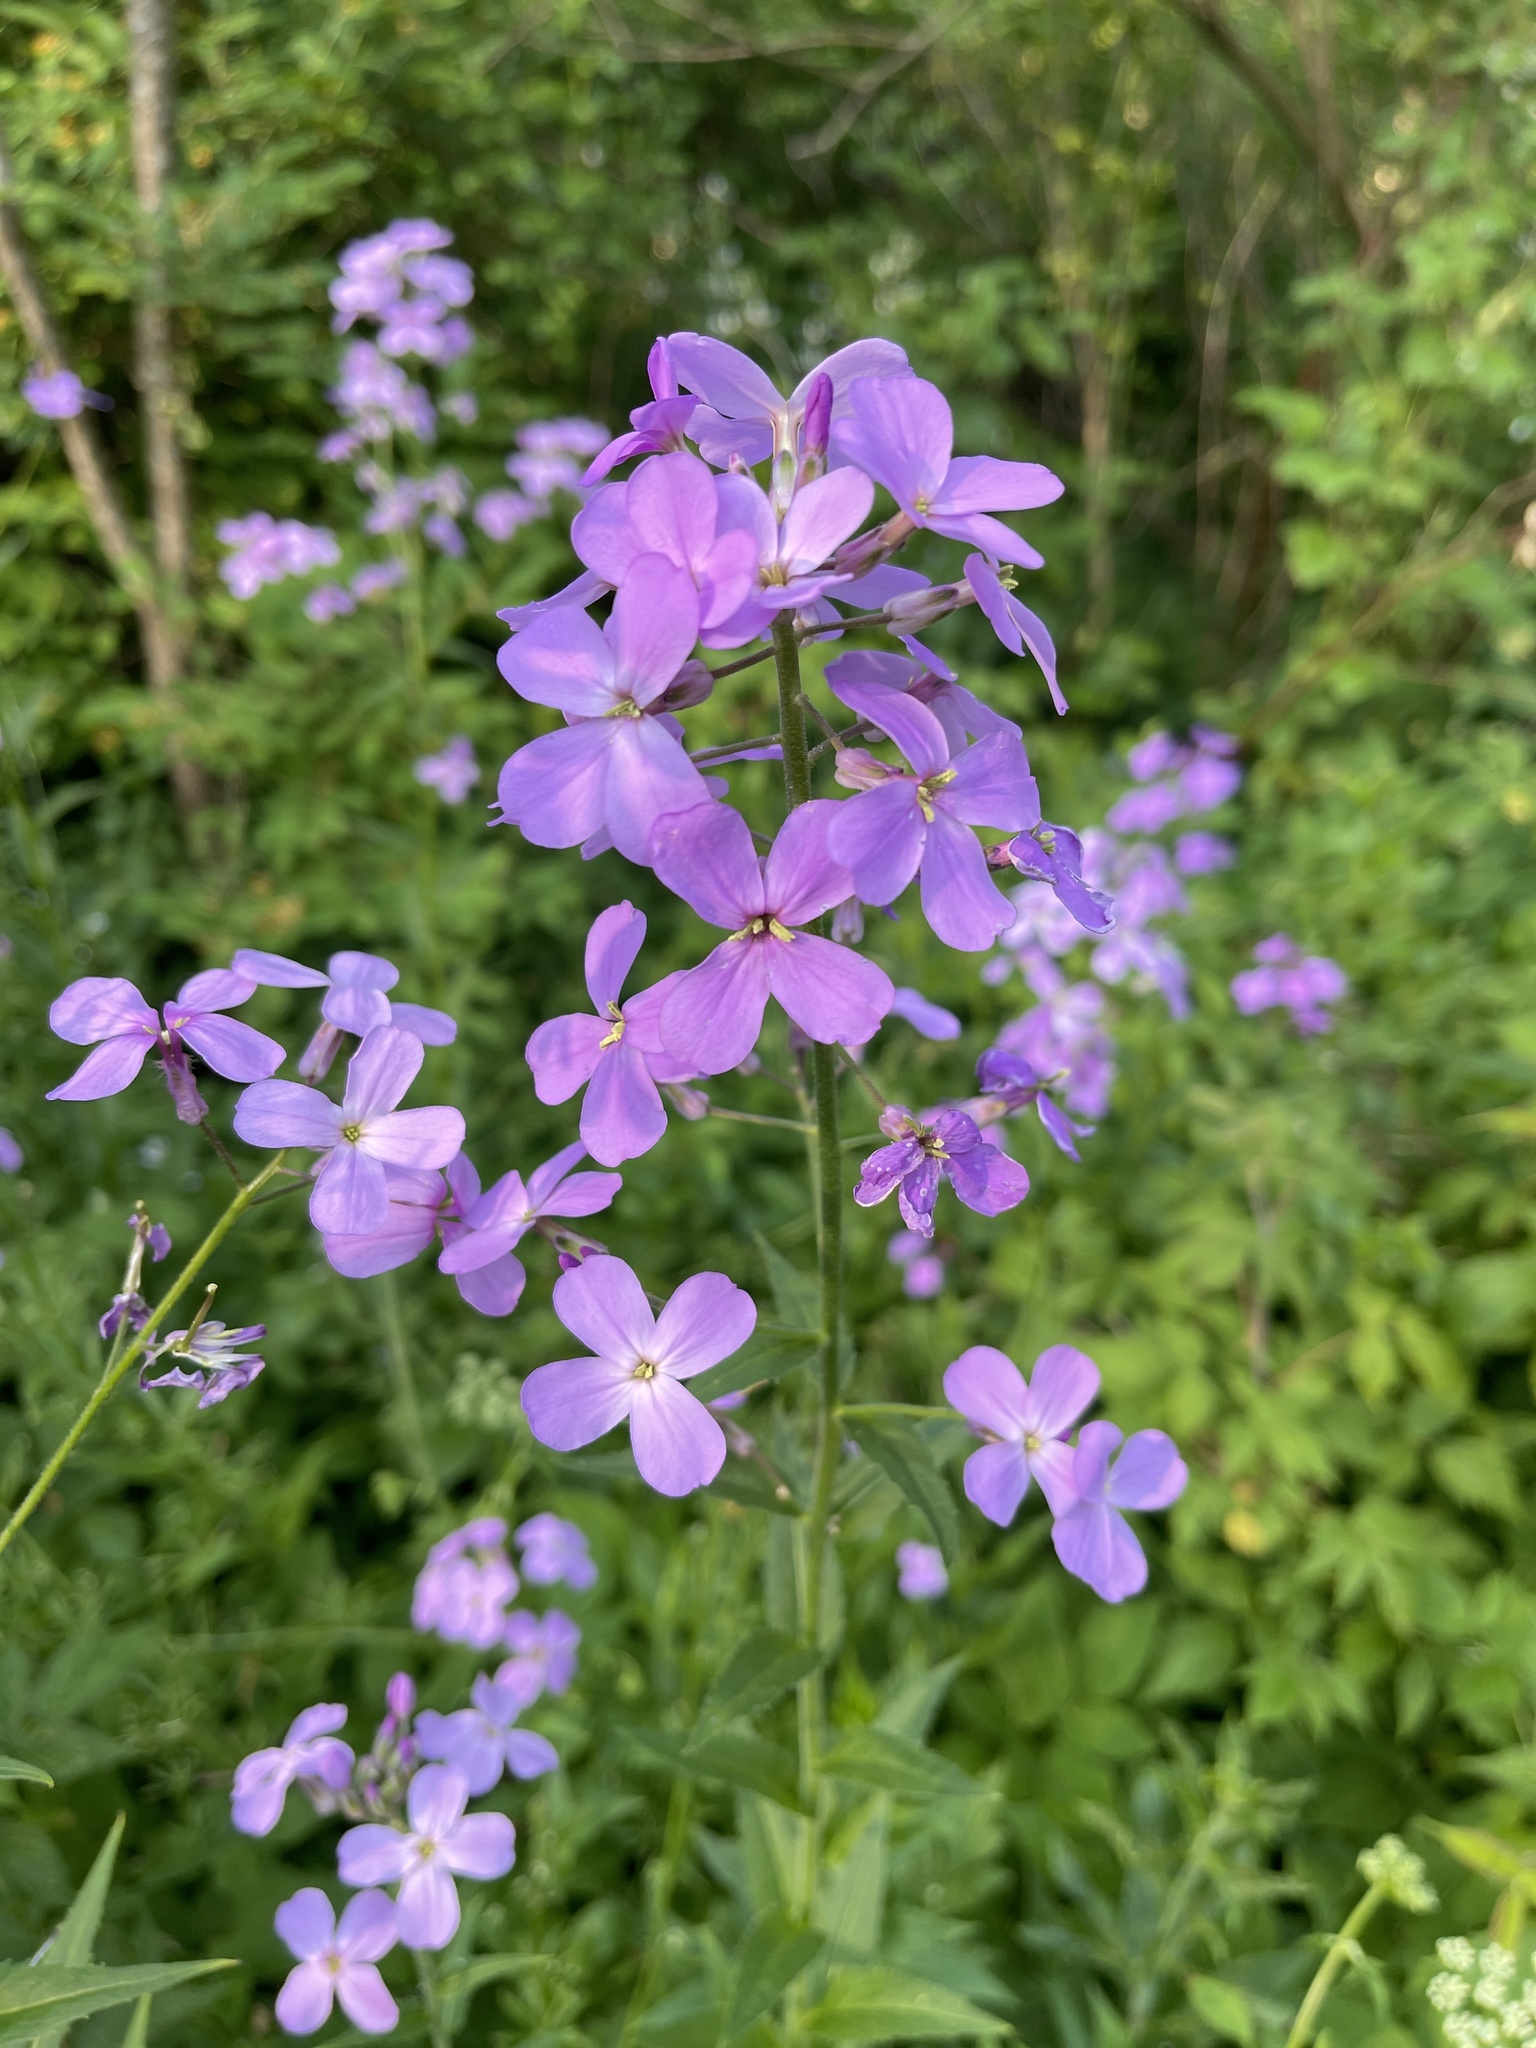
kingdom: Plantae
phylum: Tracheophyta
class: Magnoliopsida
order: Brassicales
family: Brassicaceae
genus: Hesperis
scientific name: Hesperis matronalis
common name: Dame's-violet
